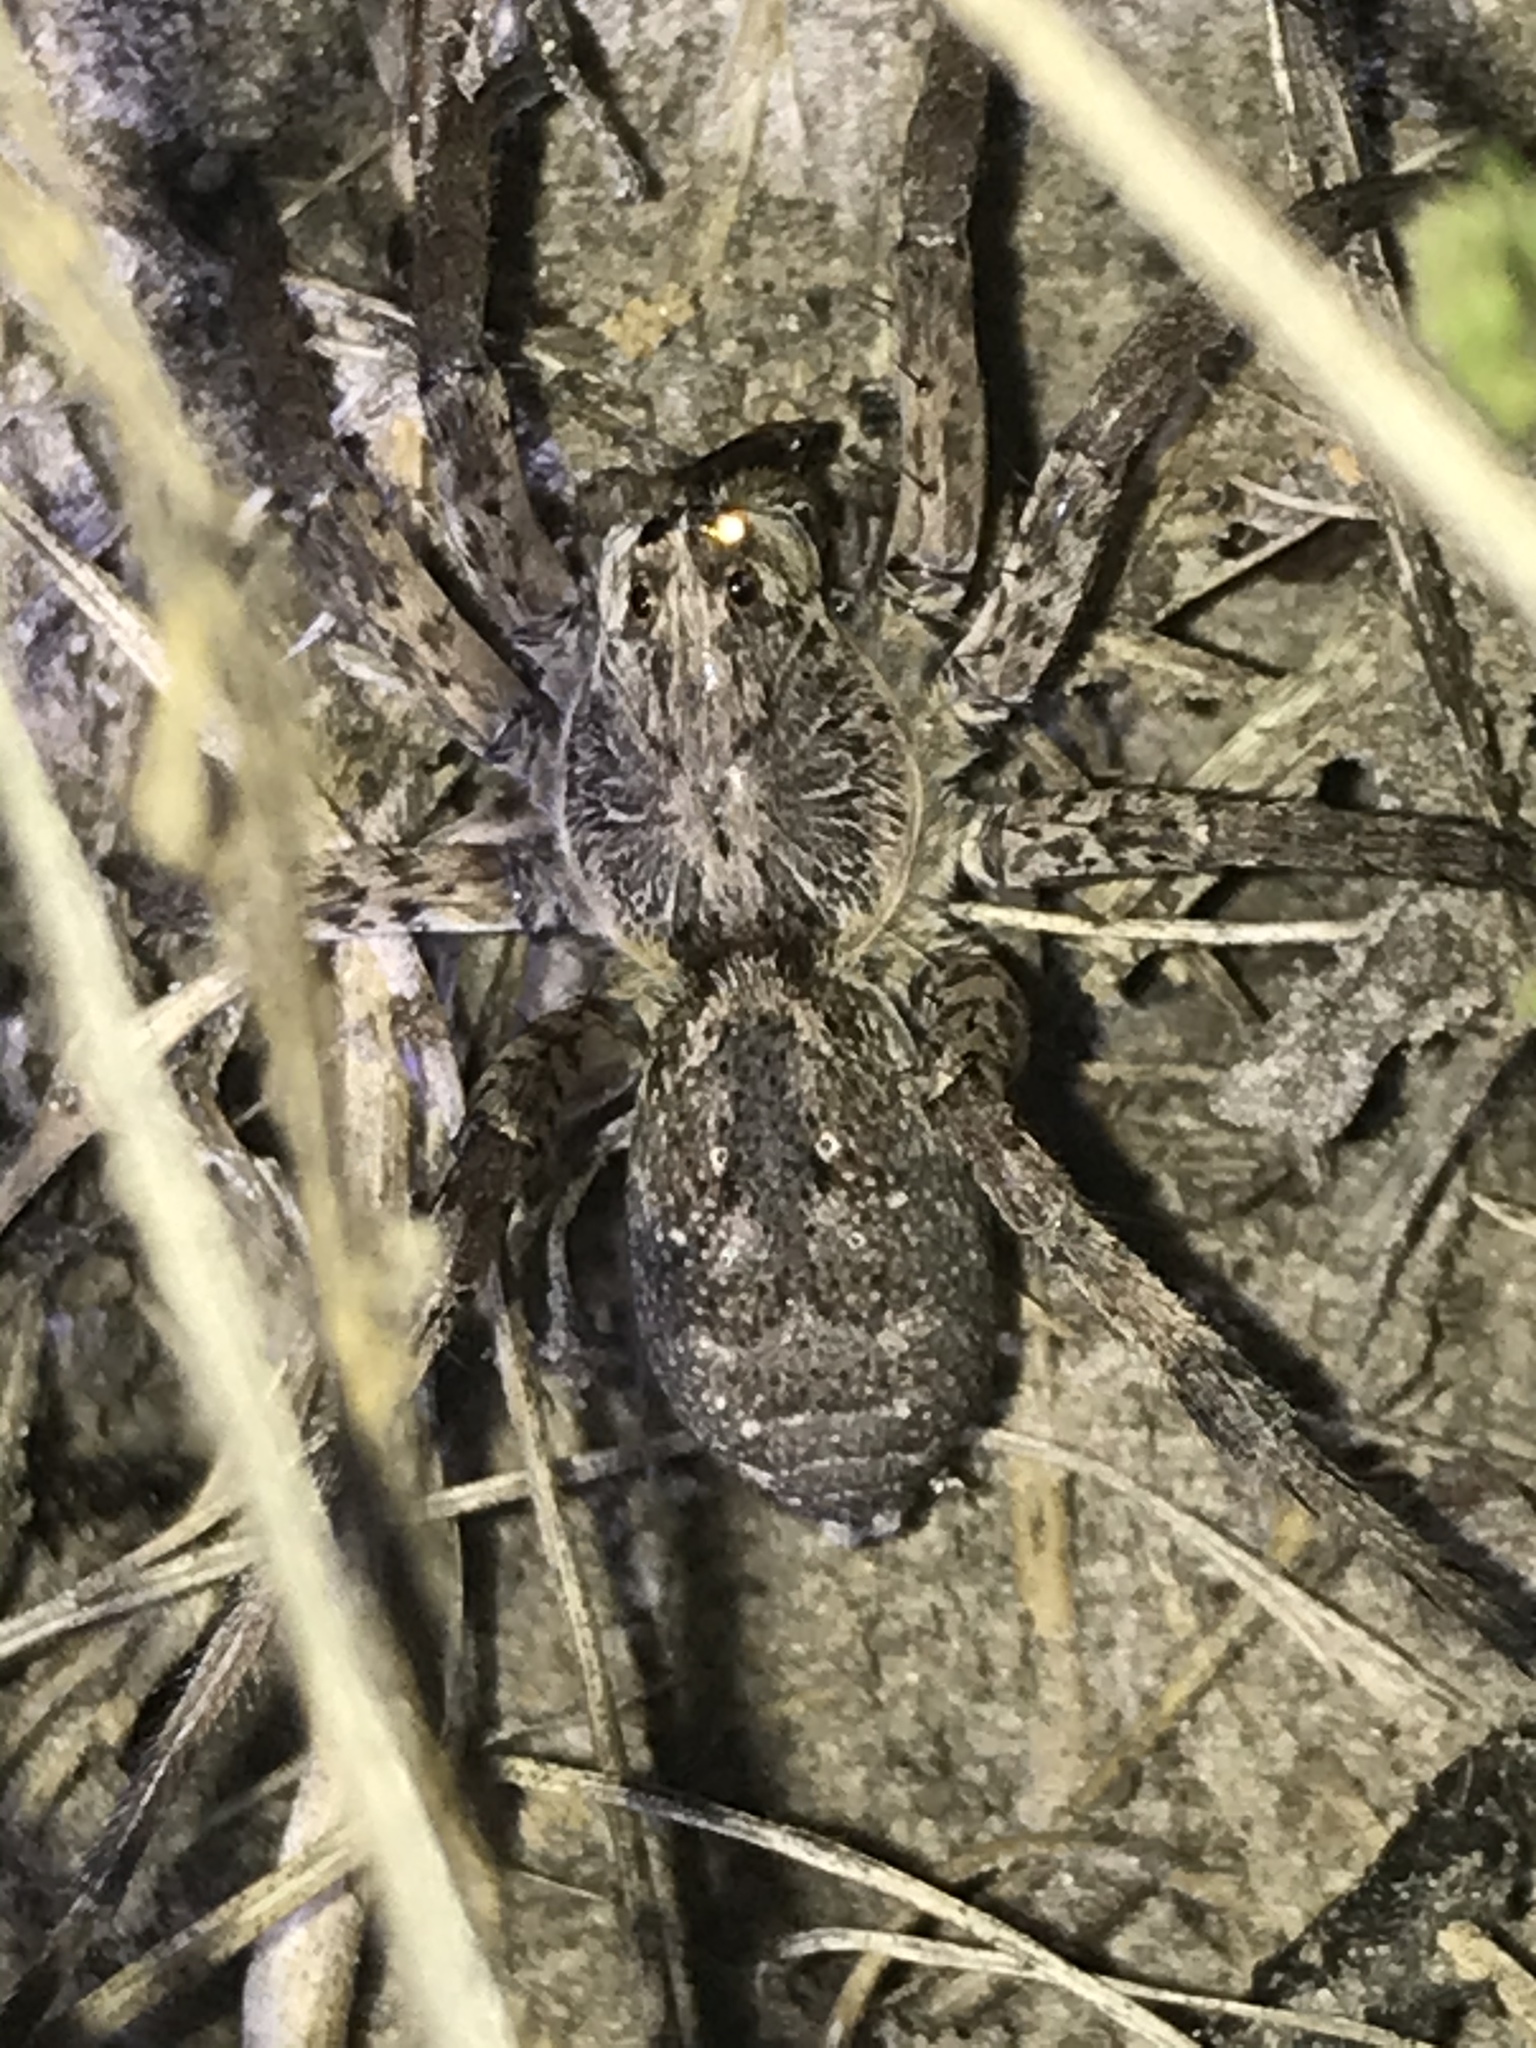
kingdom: Animalia
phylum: Arthropoda
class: Arachnida
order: Araneae
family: Lycosidae
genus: Hogna
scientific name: Hogna antelucana
